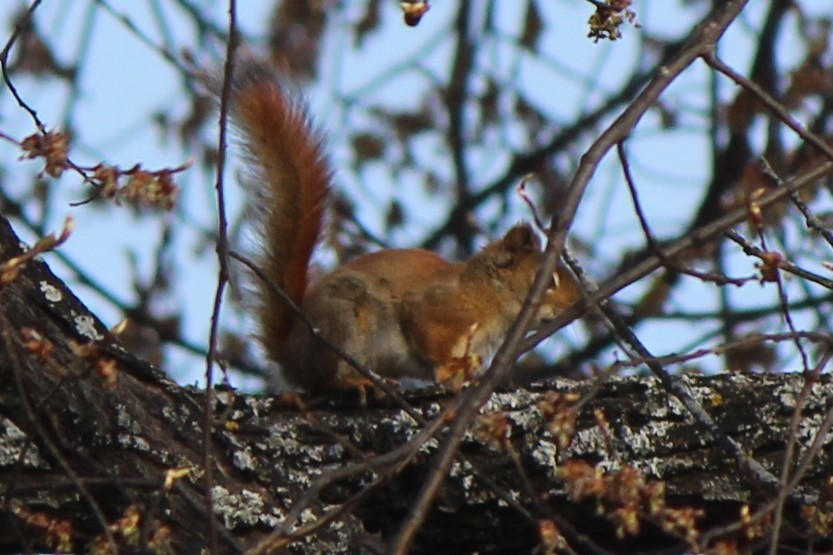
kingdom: Animalia
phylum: Chordata
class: Mammalia
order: Rodentia
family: Sciuridae
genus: Tamiasciurus
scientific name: Tamiasciurus hudsonicus
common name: Red squirrel
